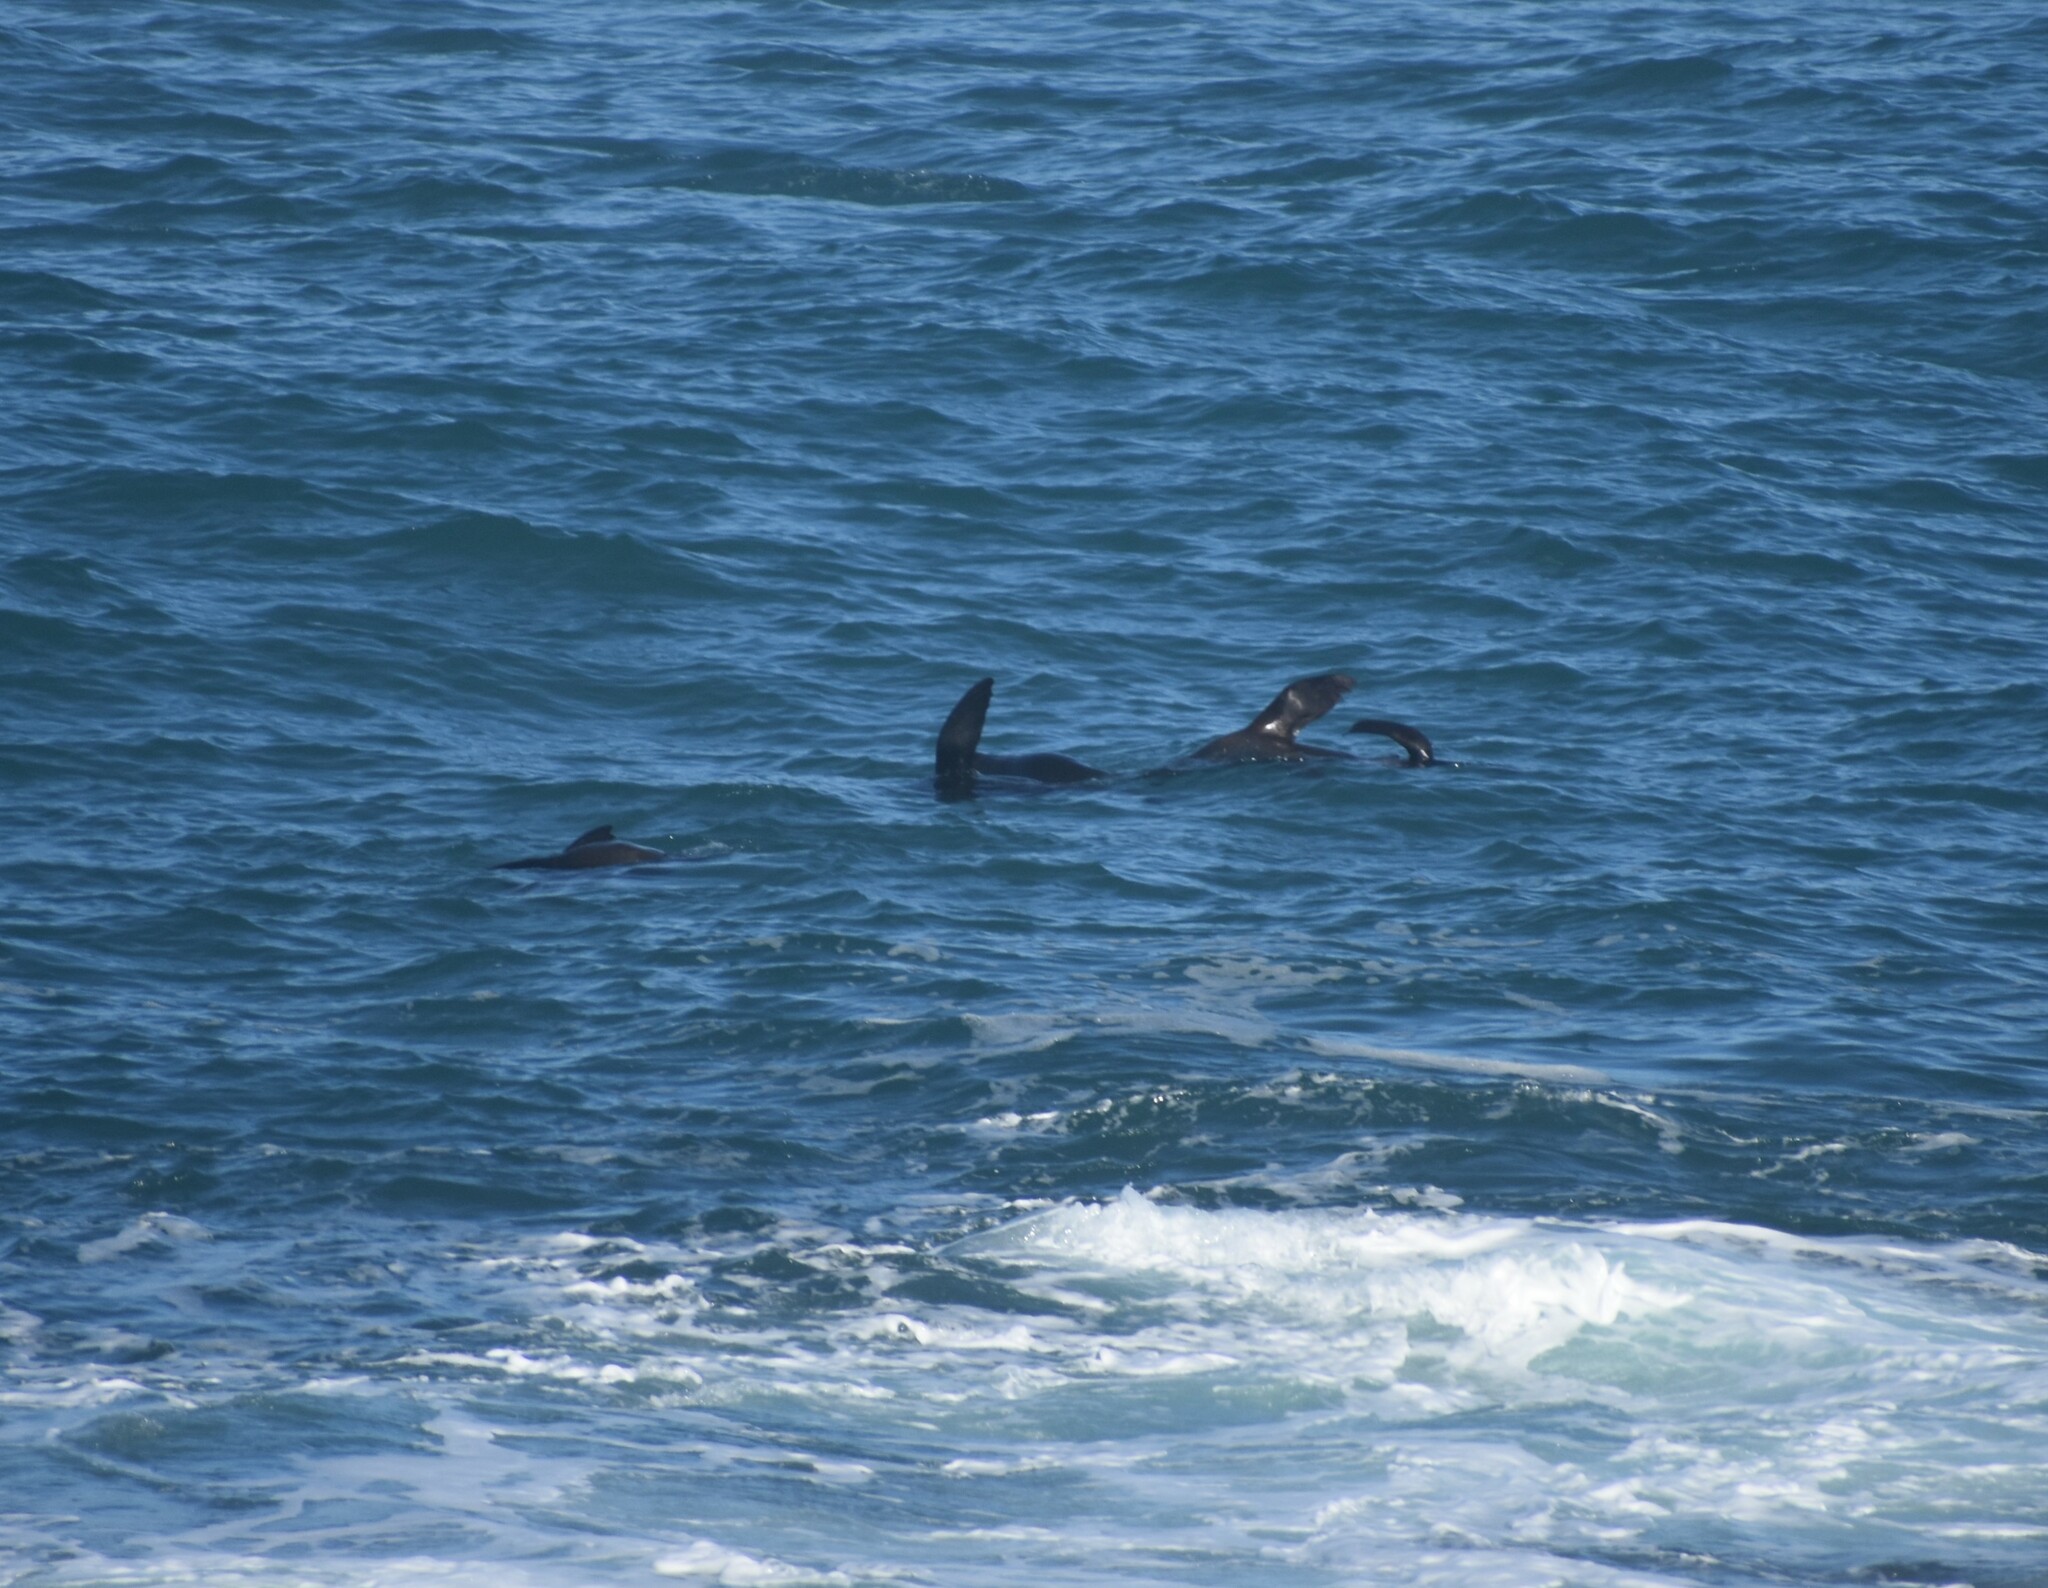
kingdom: Animalia
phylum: Chordata
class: Mammalia
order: Carnivora
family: Otariidae
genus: Arctocephalus
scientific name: Arctocephalus pusillus
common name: Brown fur seal
